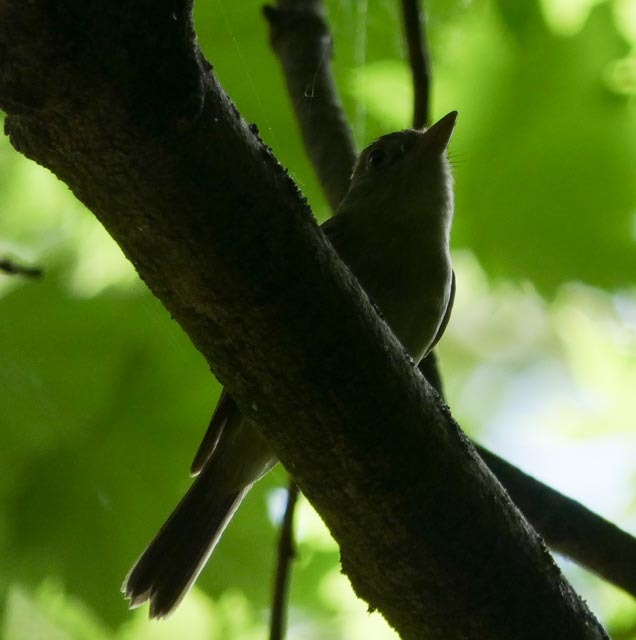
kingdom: Animalia
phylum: Chordata
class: Aves
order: Passeriformes
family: Tyrannidae
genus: Empidonax
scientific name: Empidonax virescens
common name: Acadian flycatcher
